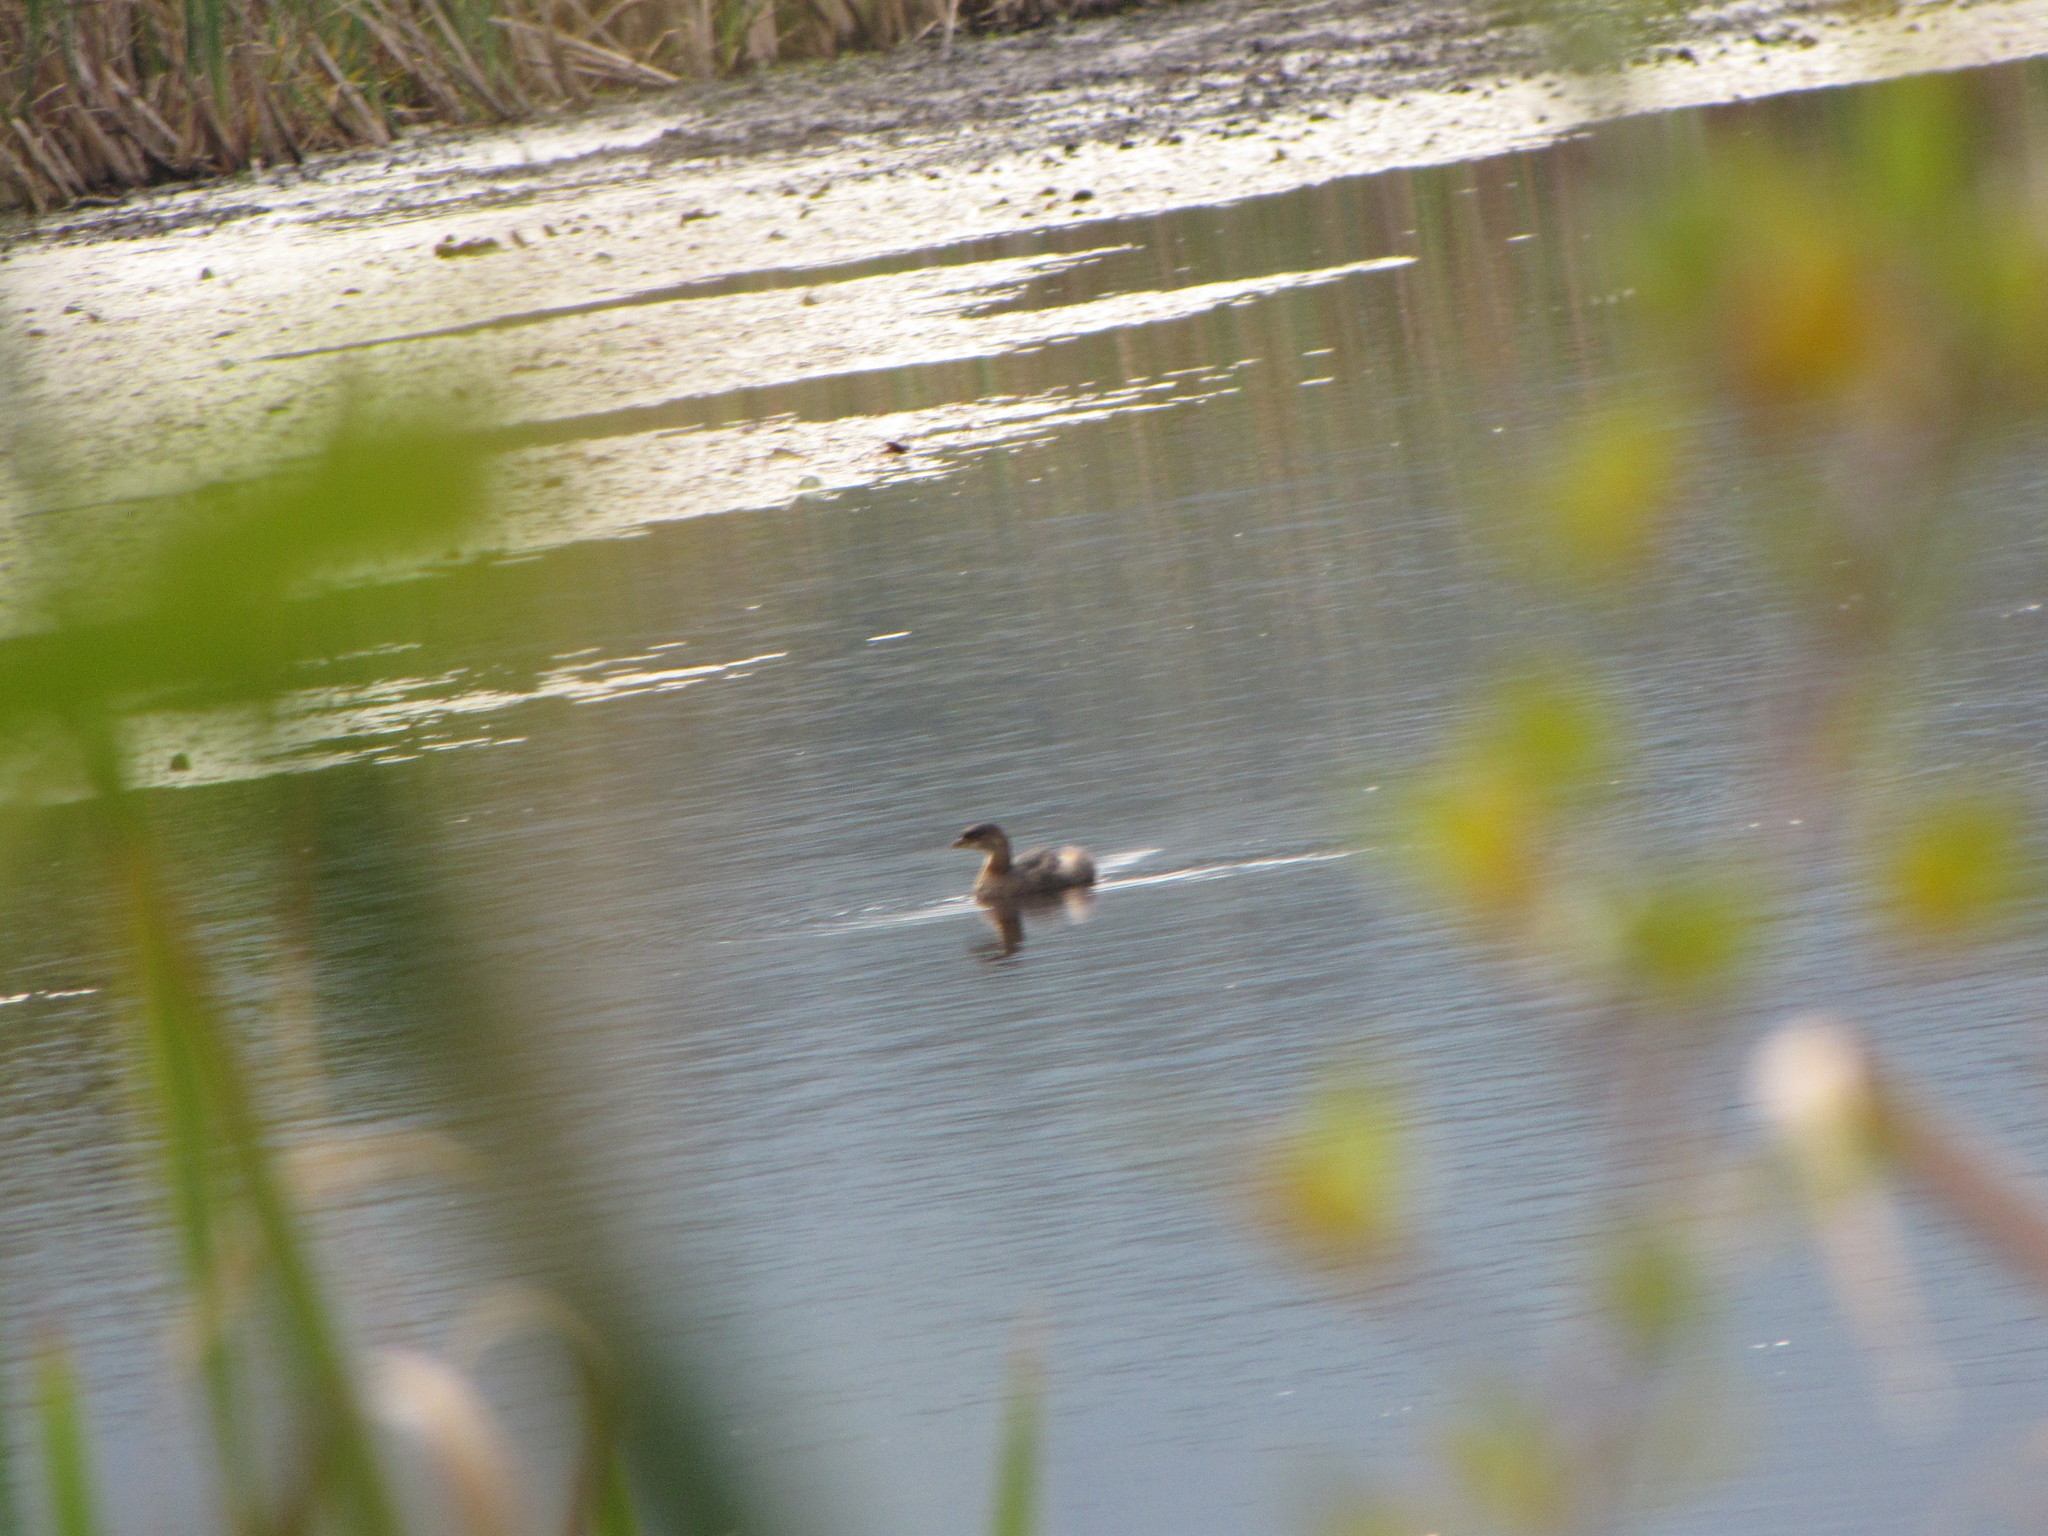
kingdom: Animalia
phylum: Chordata
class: Aves
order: Podicipediformes
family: Podicipedidae
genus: Podilymbus
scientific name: Podilymbus podiceps
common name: Pied-billed grebe
